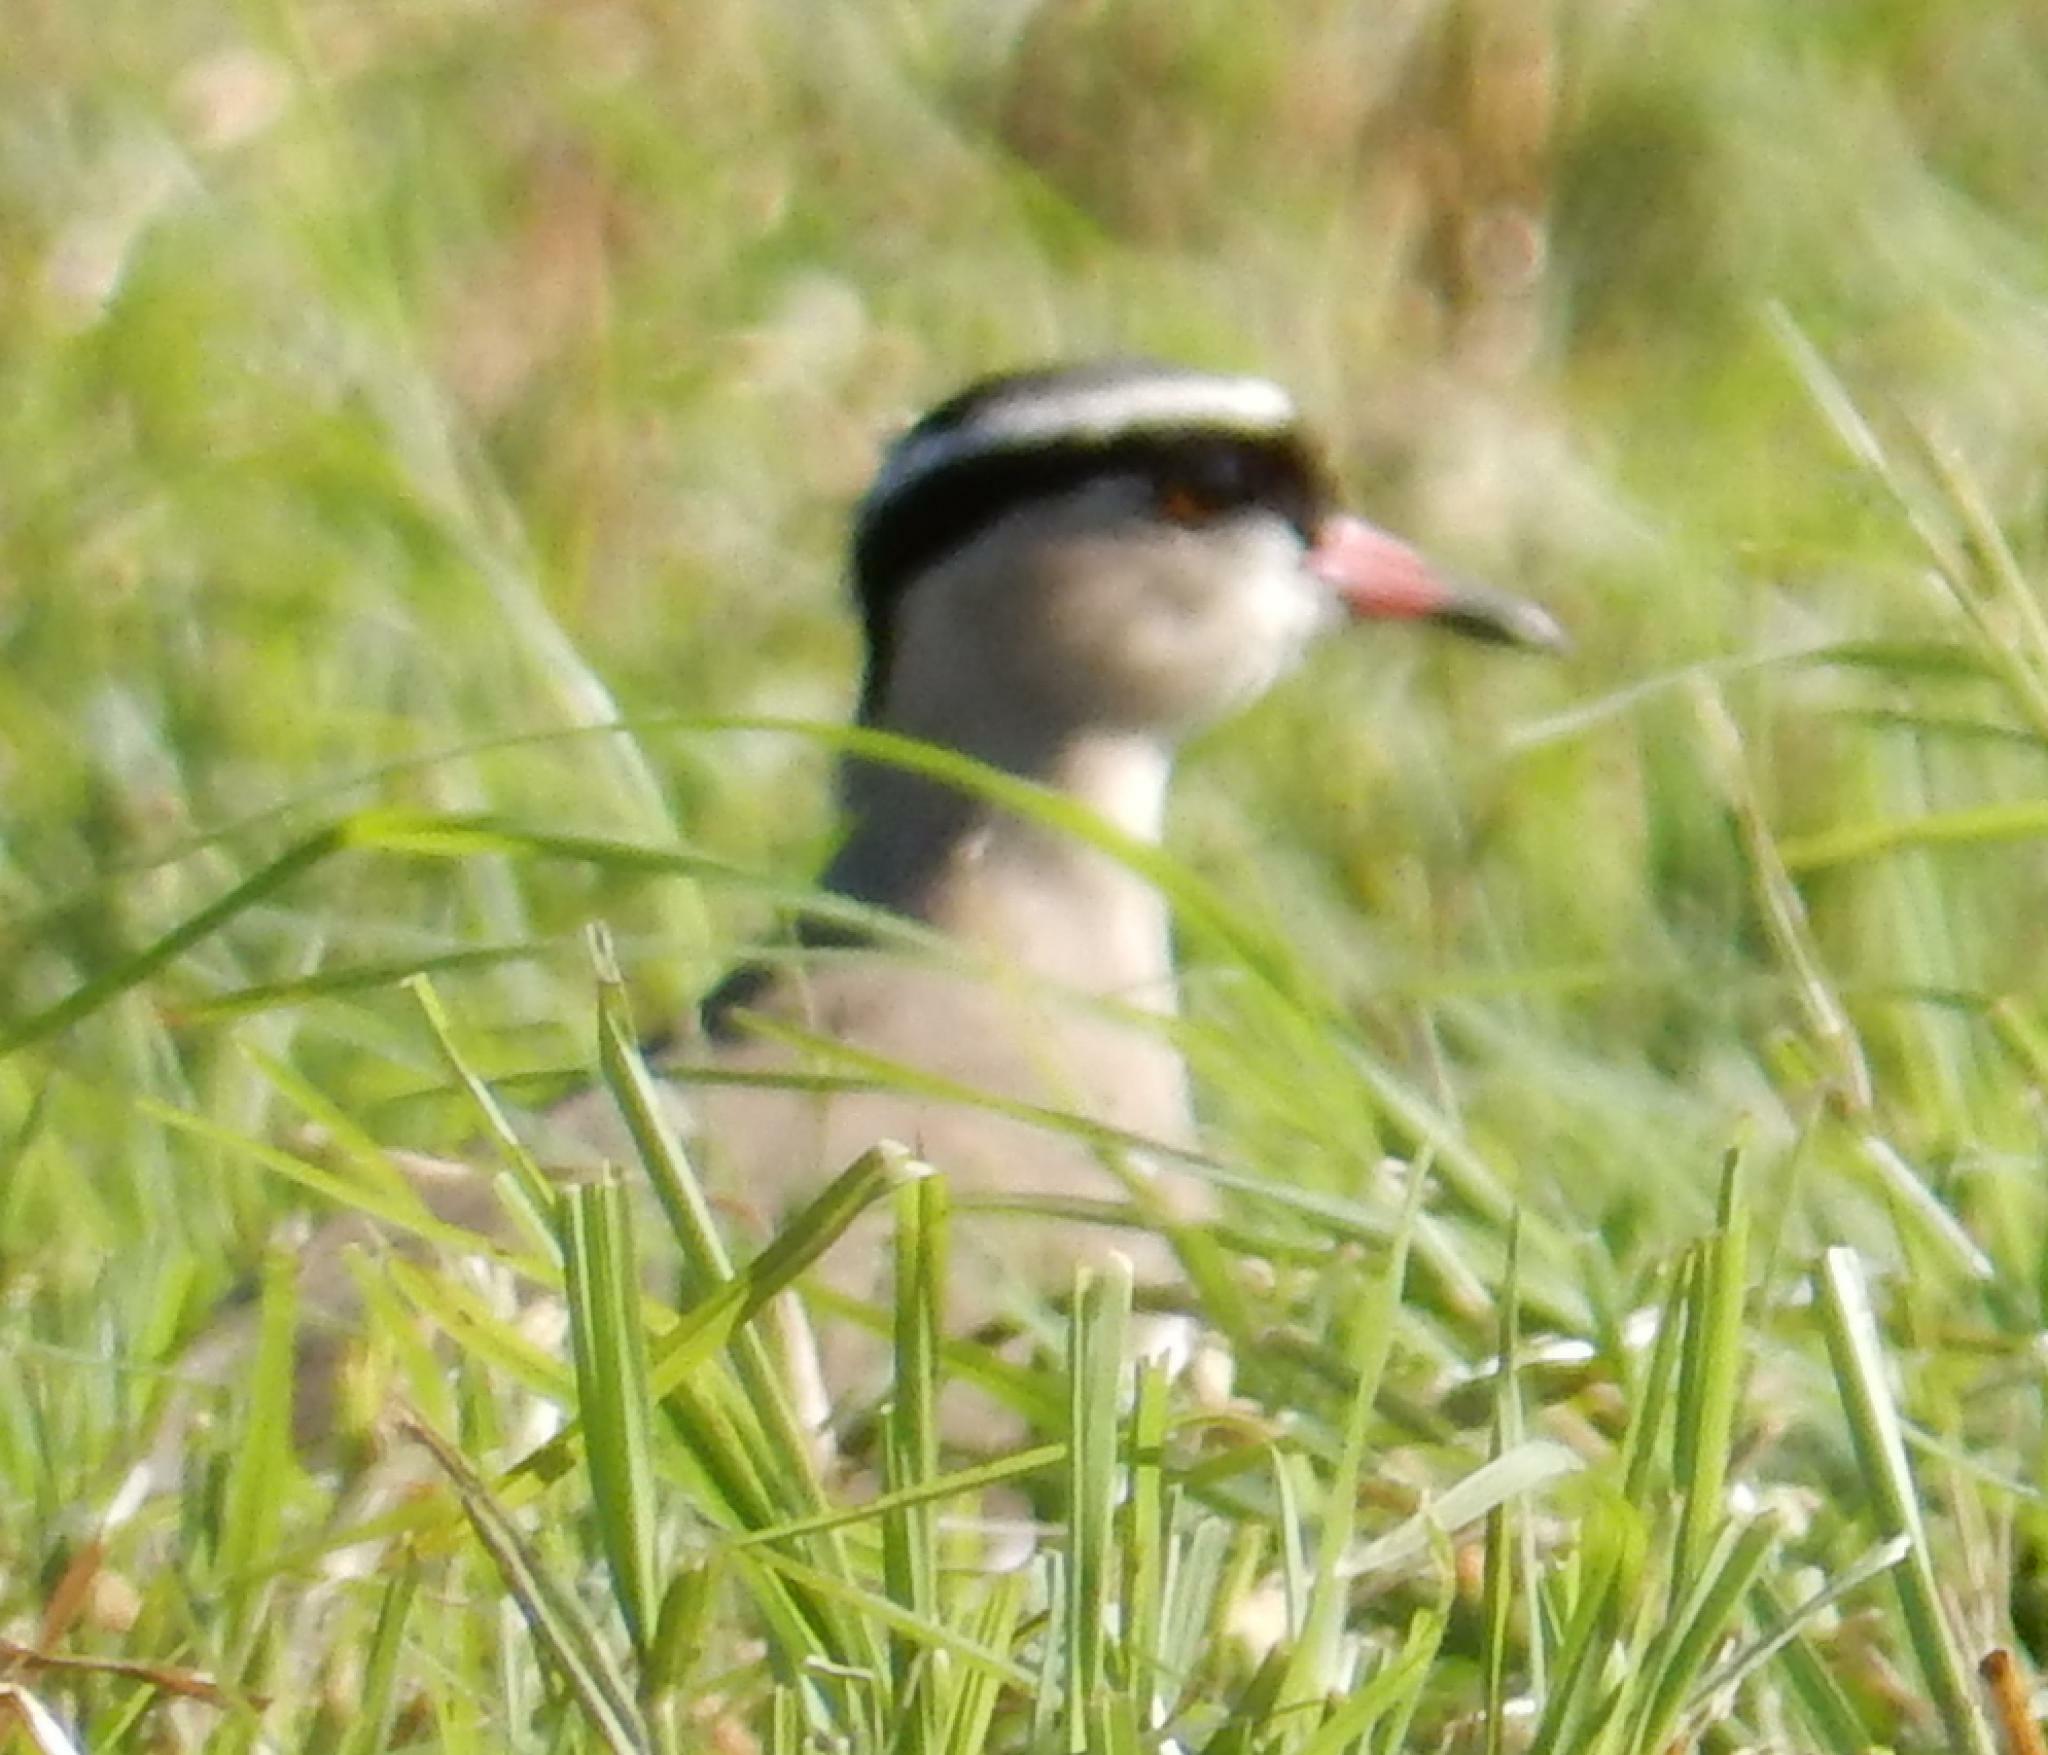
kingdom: Animalia
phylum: Chordata
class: Aves
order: Charadriiformes
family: Charadriidae
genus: Vanellus
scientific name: Vanellus coronatus
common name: Crowned lapwing
